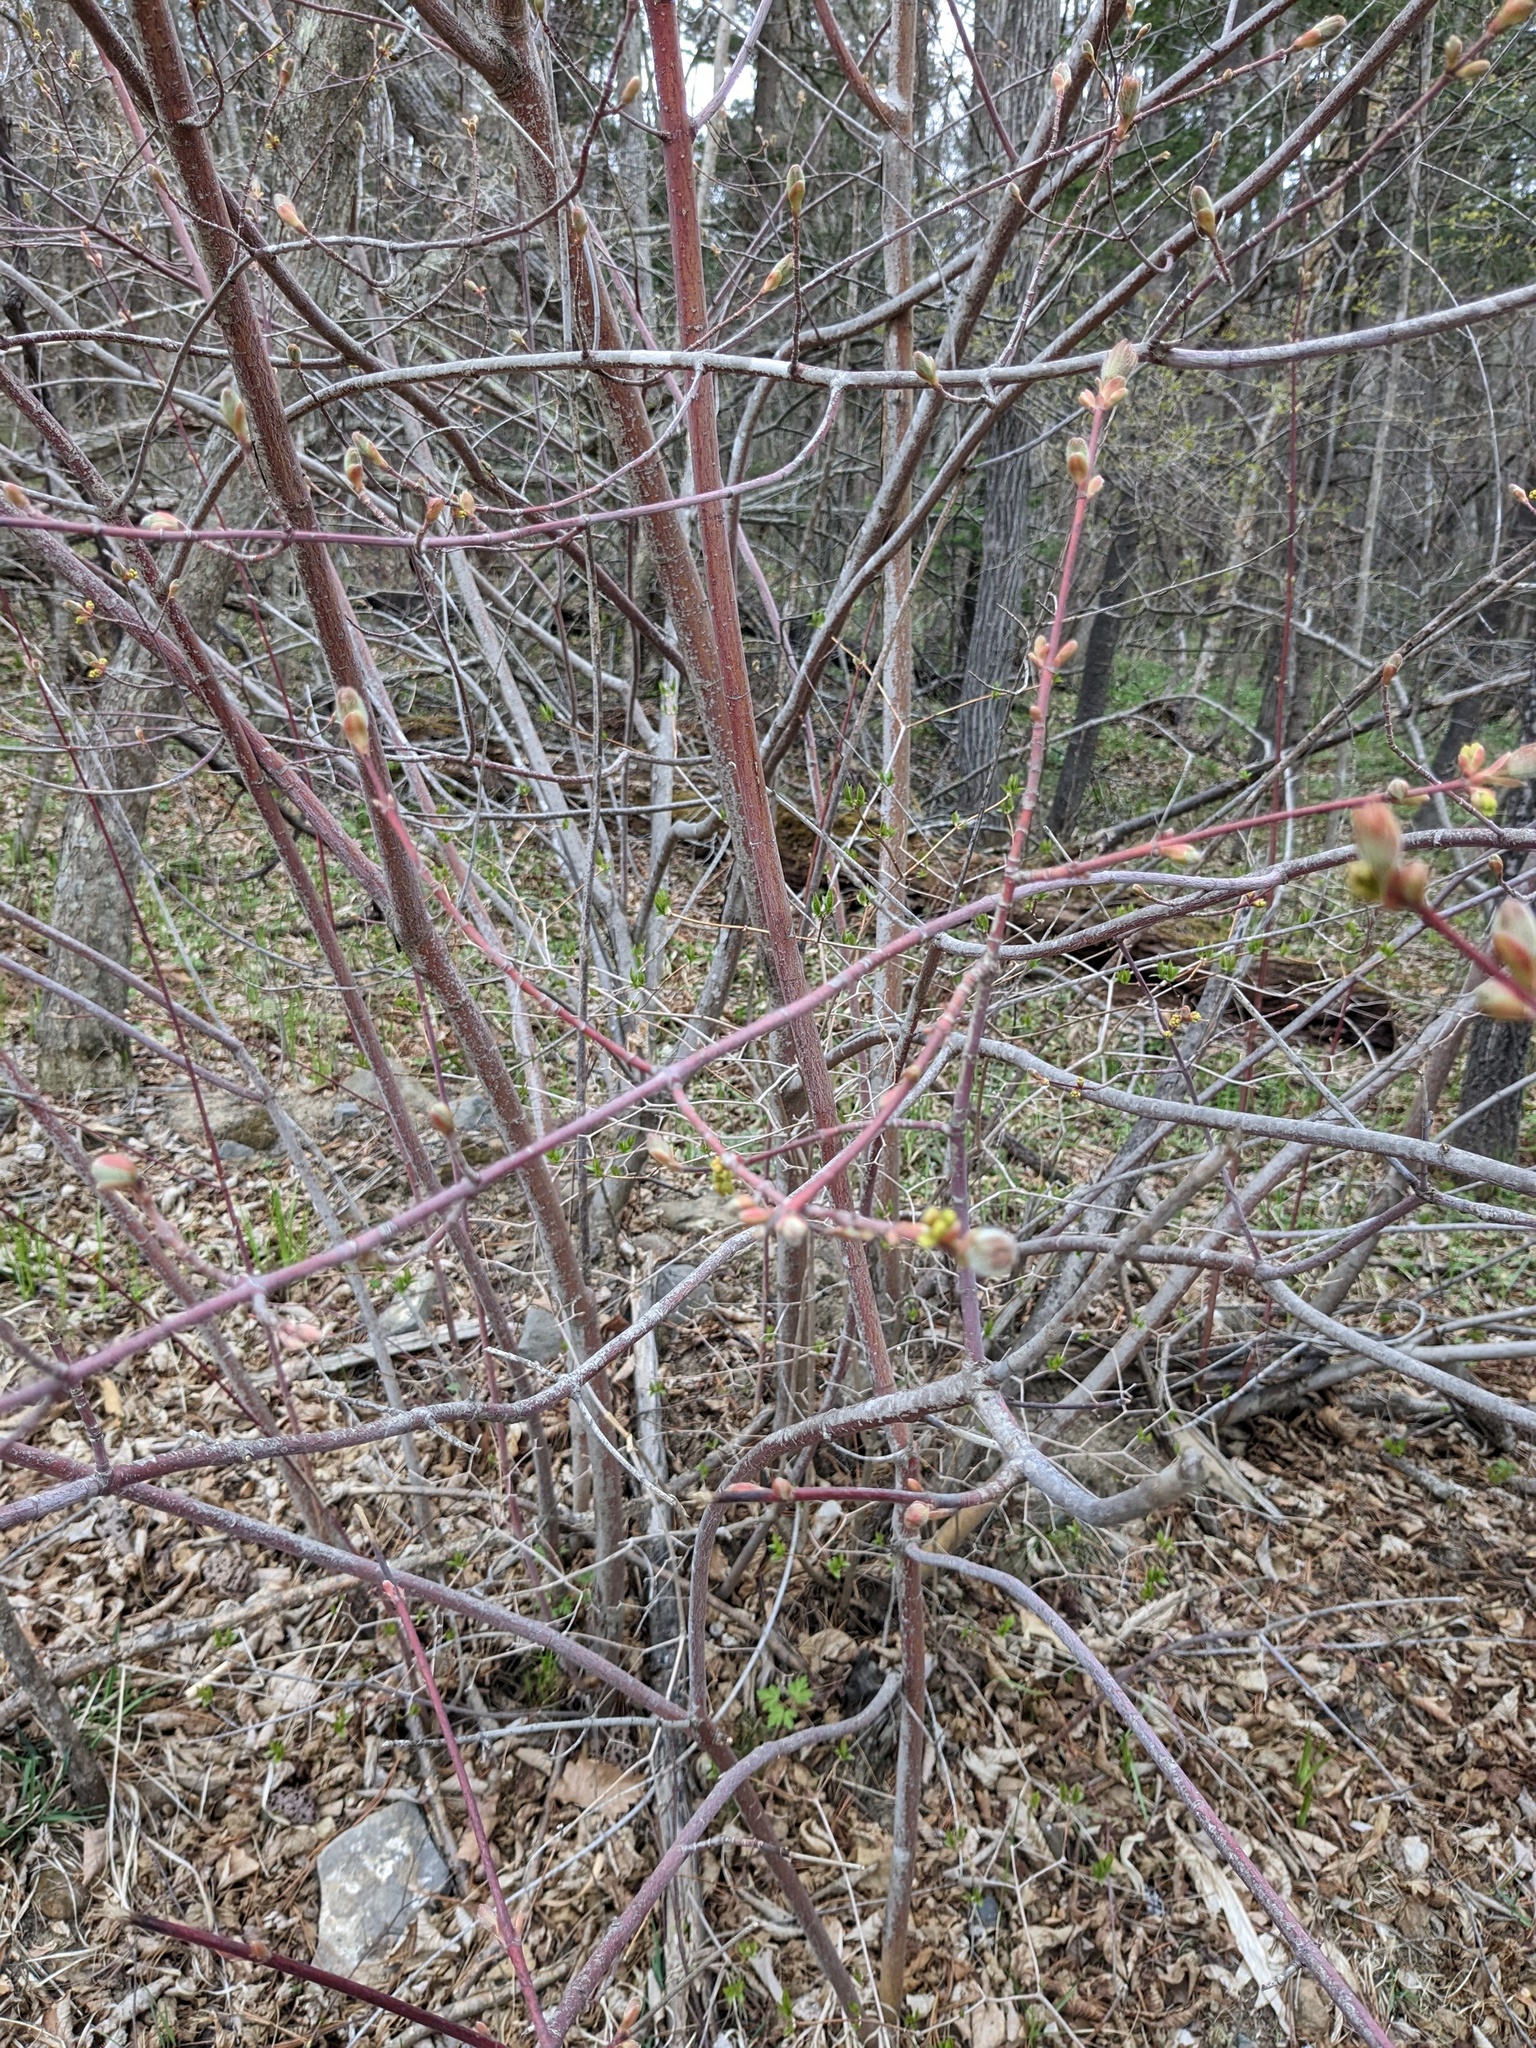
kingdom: Plantae
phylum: Tracheophyta
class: Magnoliopsida
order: Sapindales
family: Sapindaceae
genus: Acer
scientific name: Acer barbinerve
